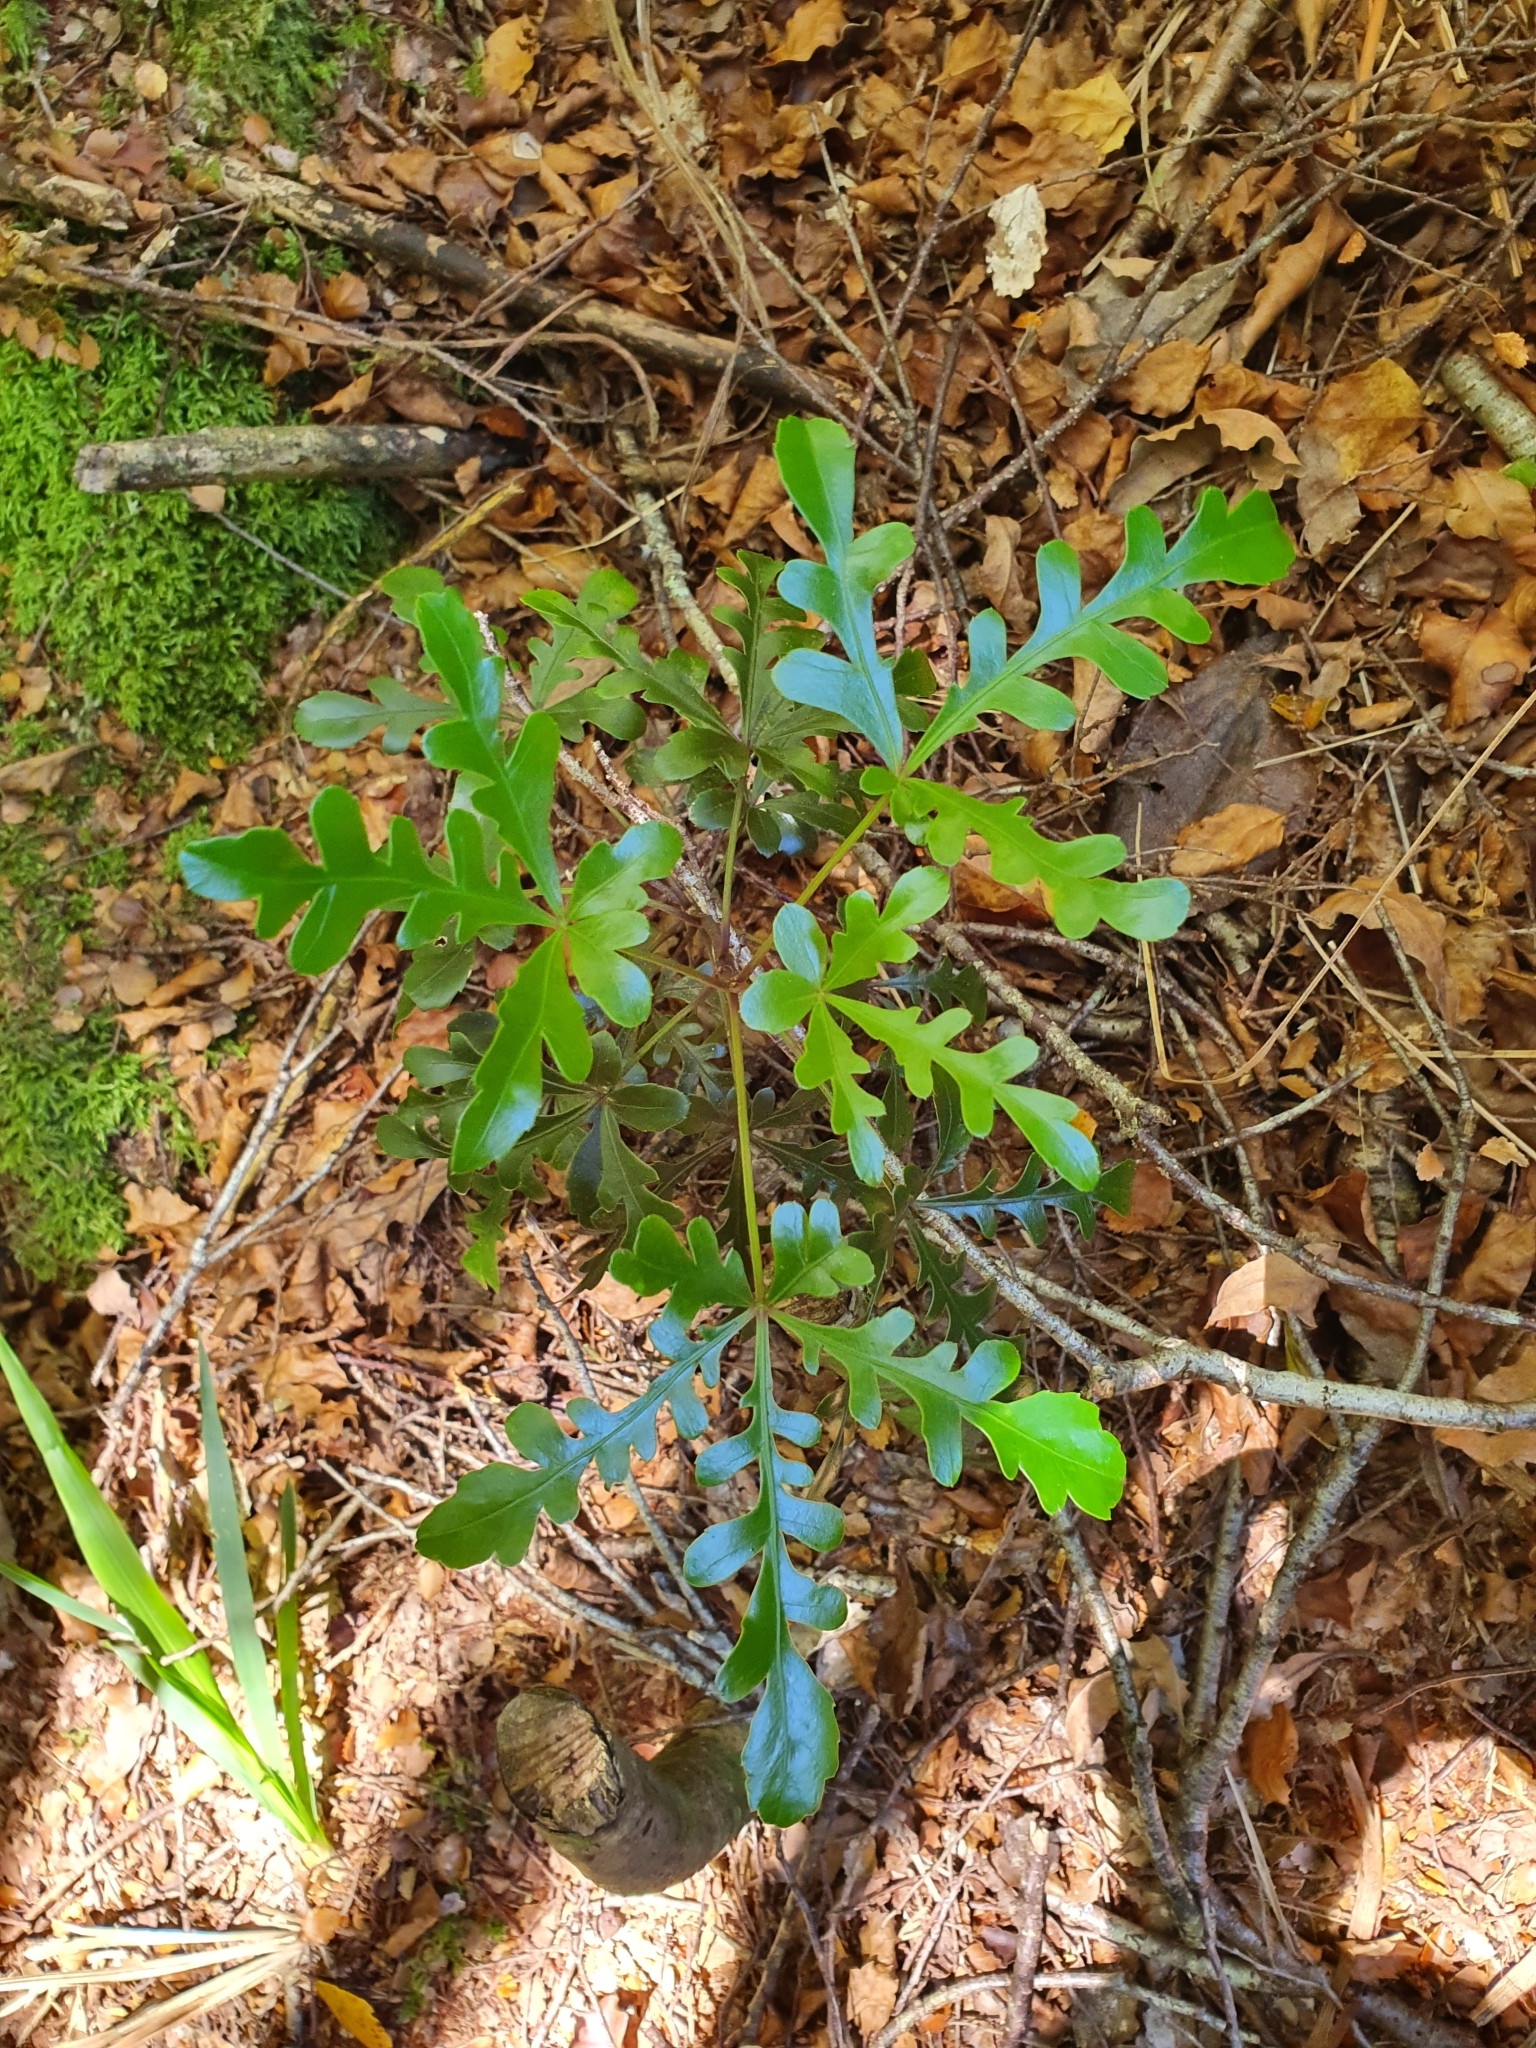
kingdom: Plantae
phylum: Tracheophyta
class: Magnoliopsida
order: Apiales
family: Araliaceae
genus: Raukaua
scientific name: Raukaua edgerleyi
